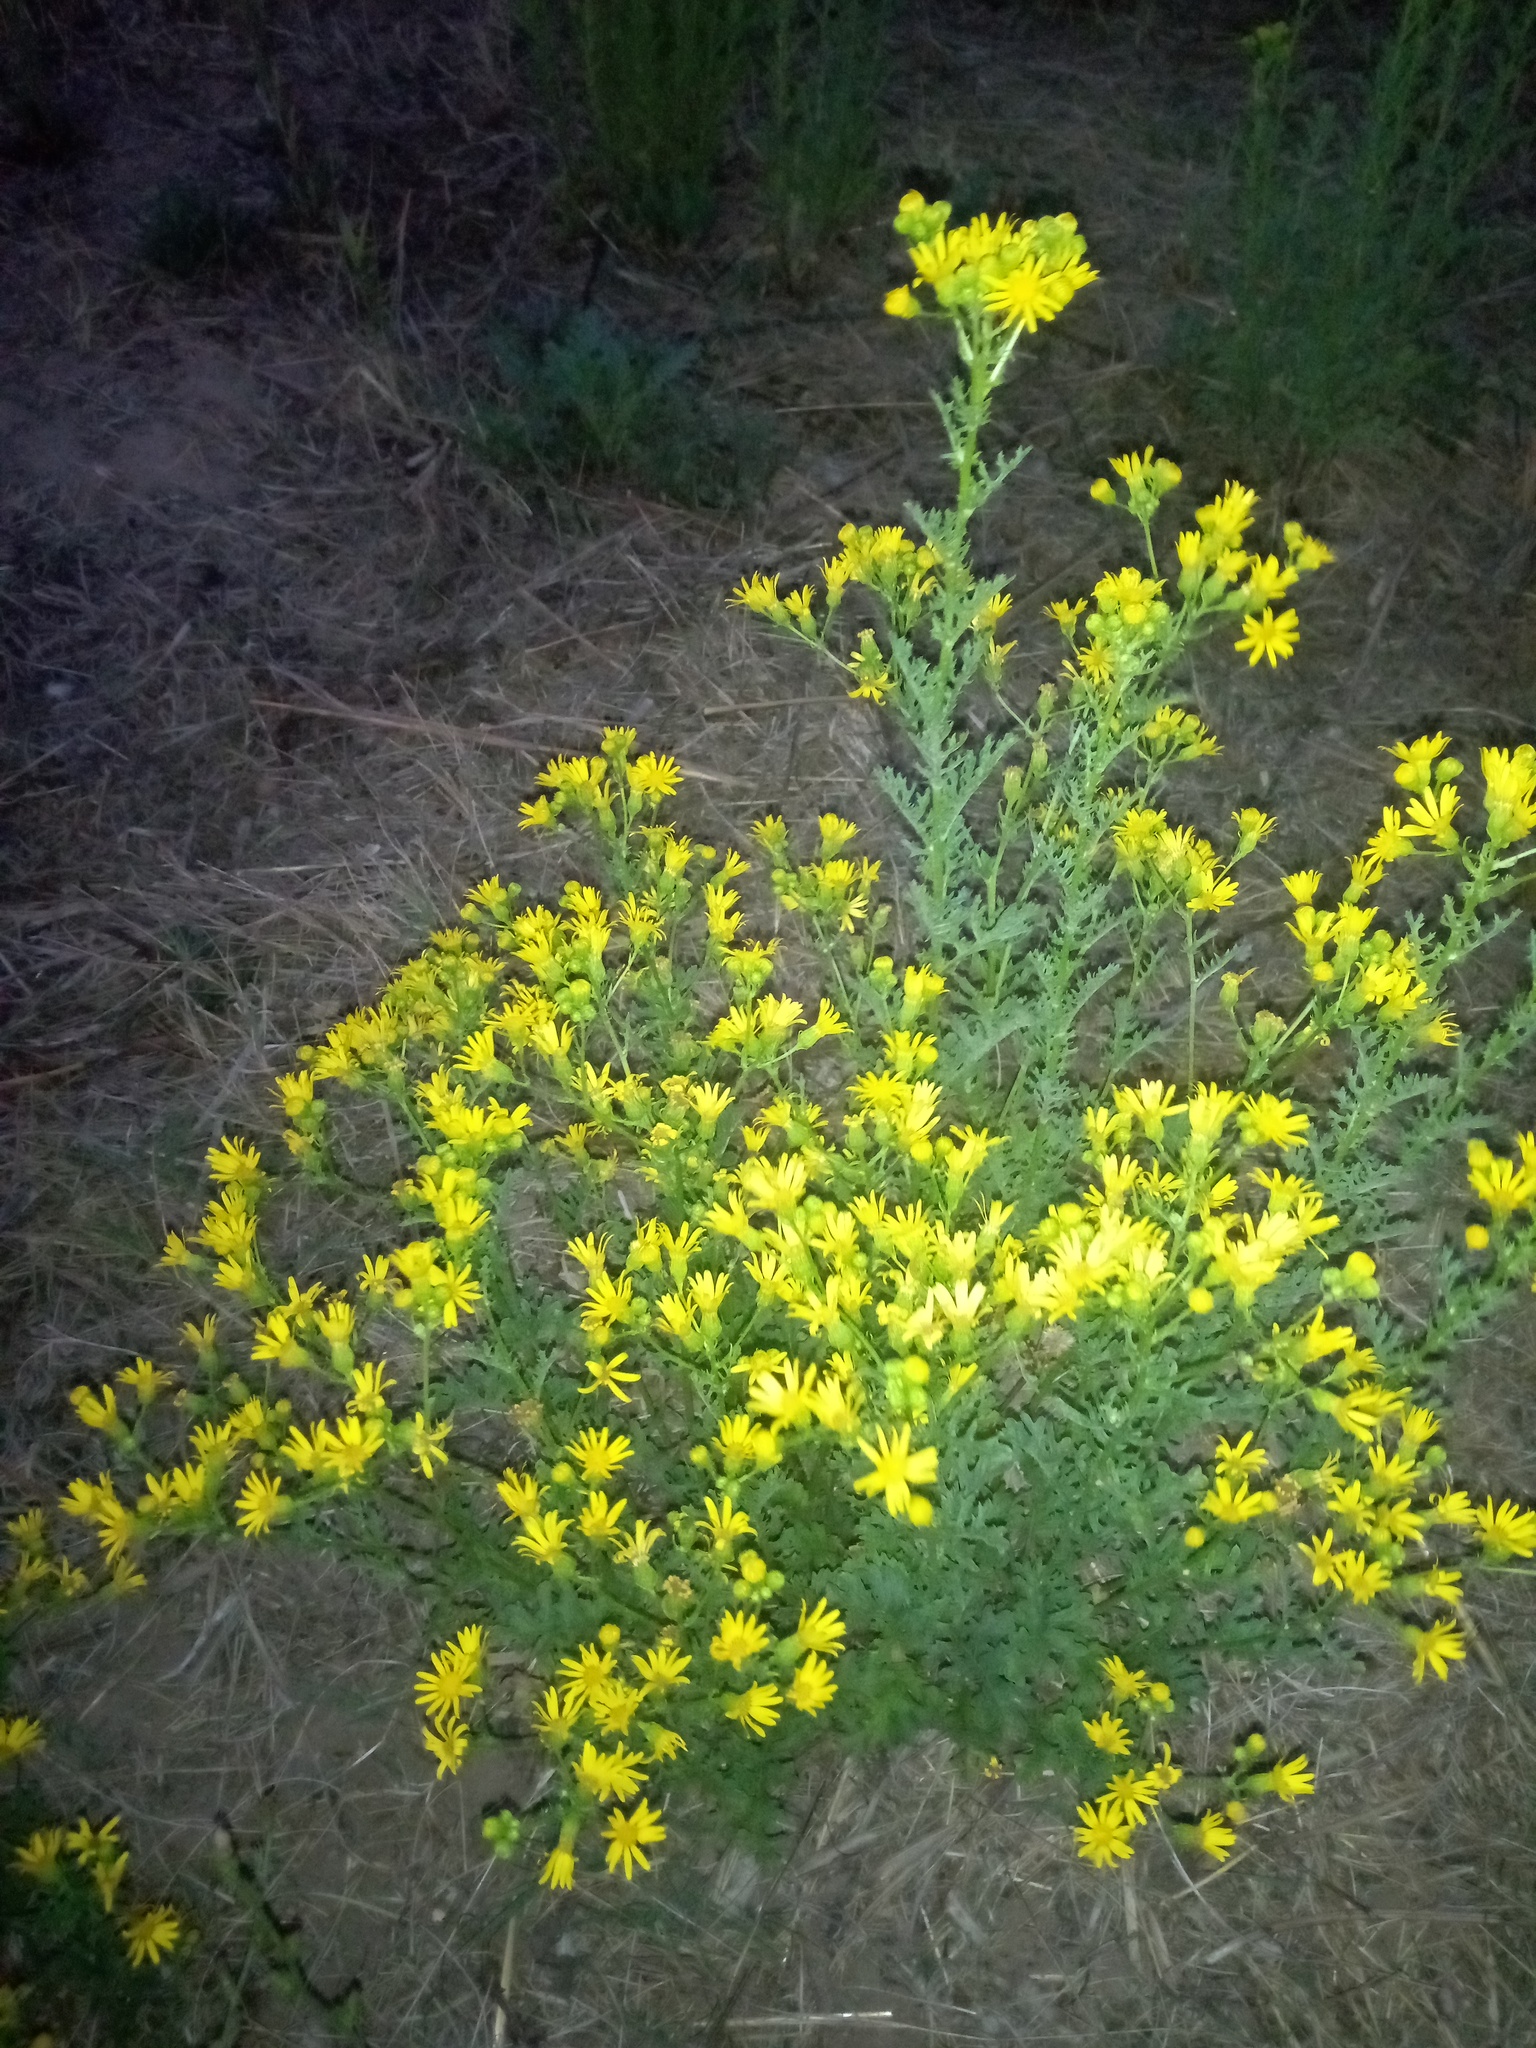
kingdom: Plantae
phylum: Tracheophyta
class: Magnoliopsida
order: Asterales
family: Asteraceae
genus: Jacobaea
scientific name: Jacobaea vulgaris
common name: Stinking willie
